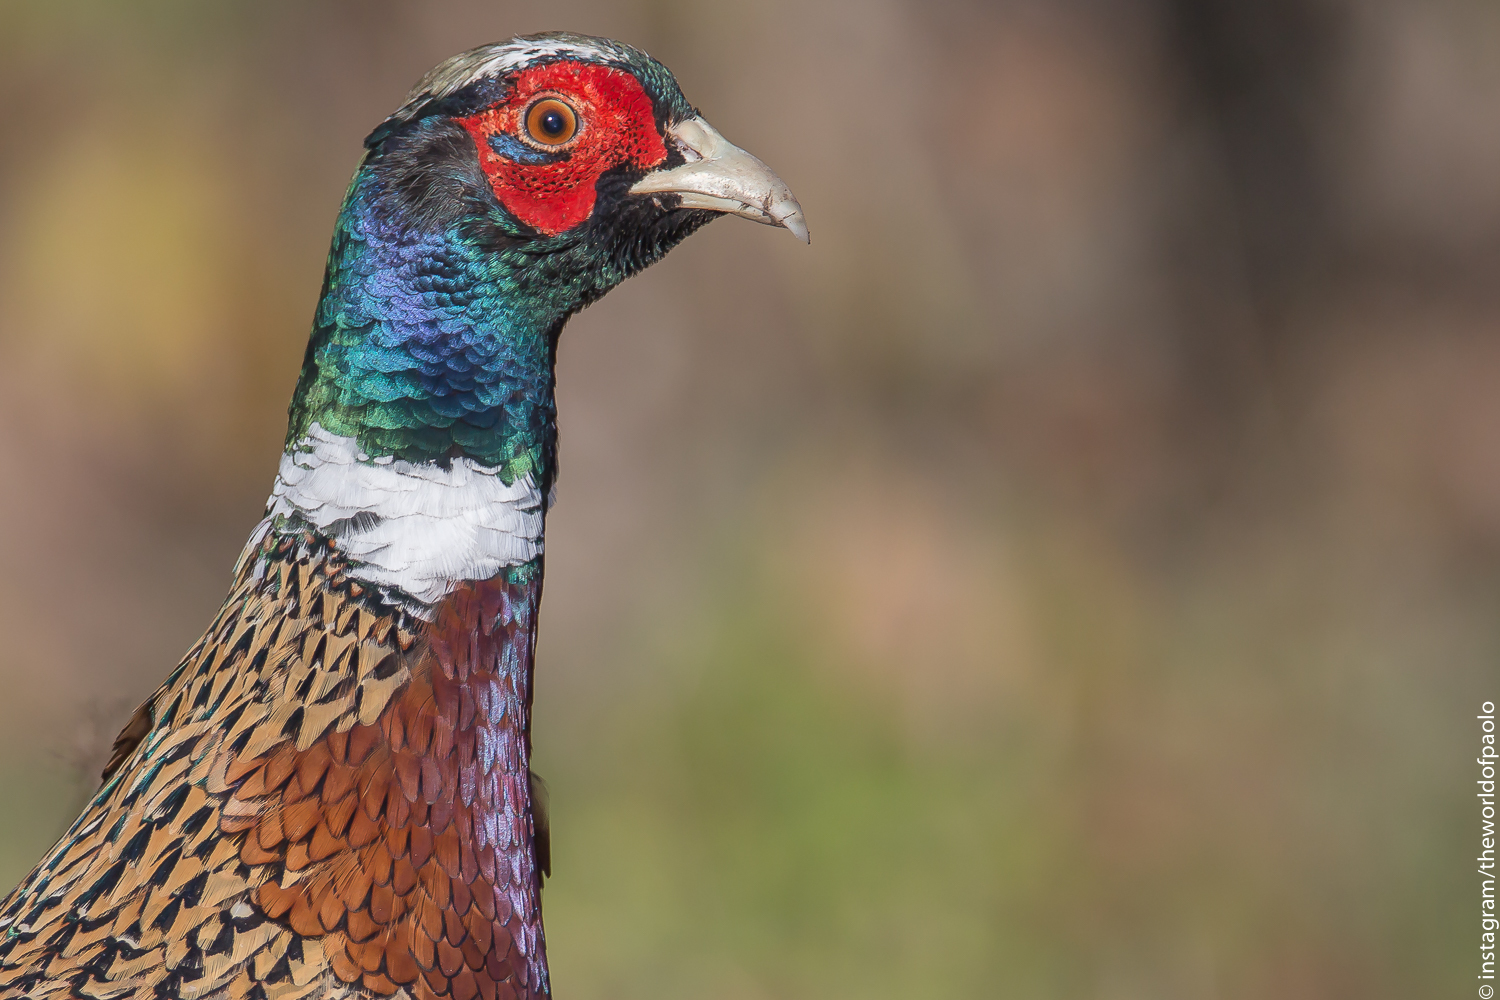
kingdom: Animalia
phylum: Chordata
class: Aves
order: Galliformes
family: Phasianidae
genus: Phasianus
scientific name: Phasianus colchicus
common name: Common pheasant
